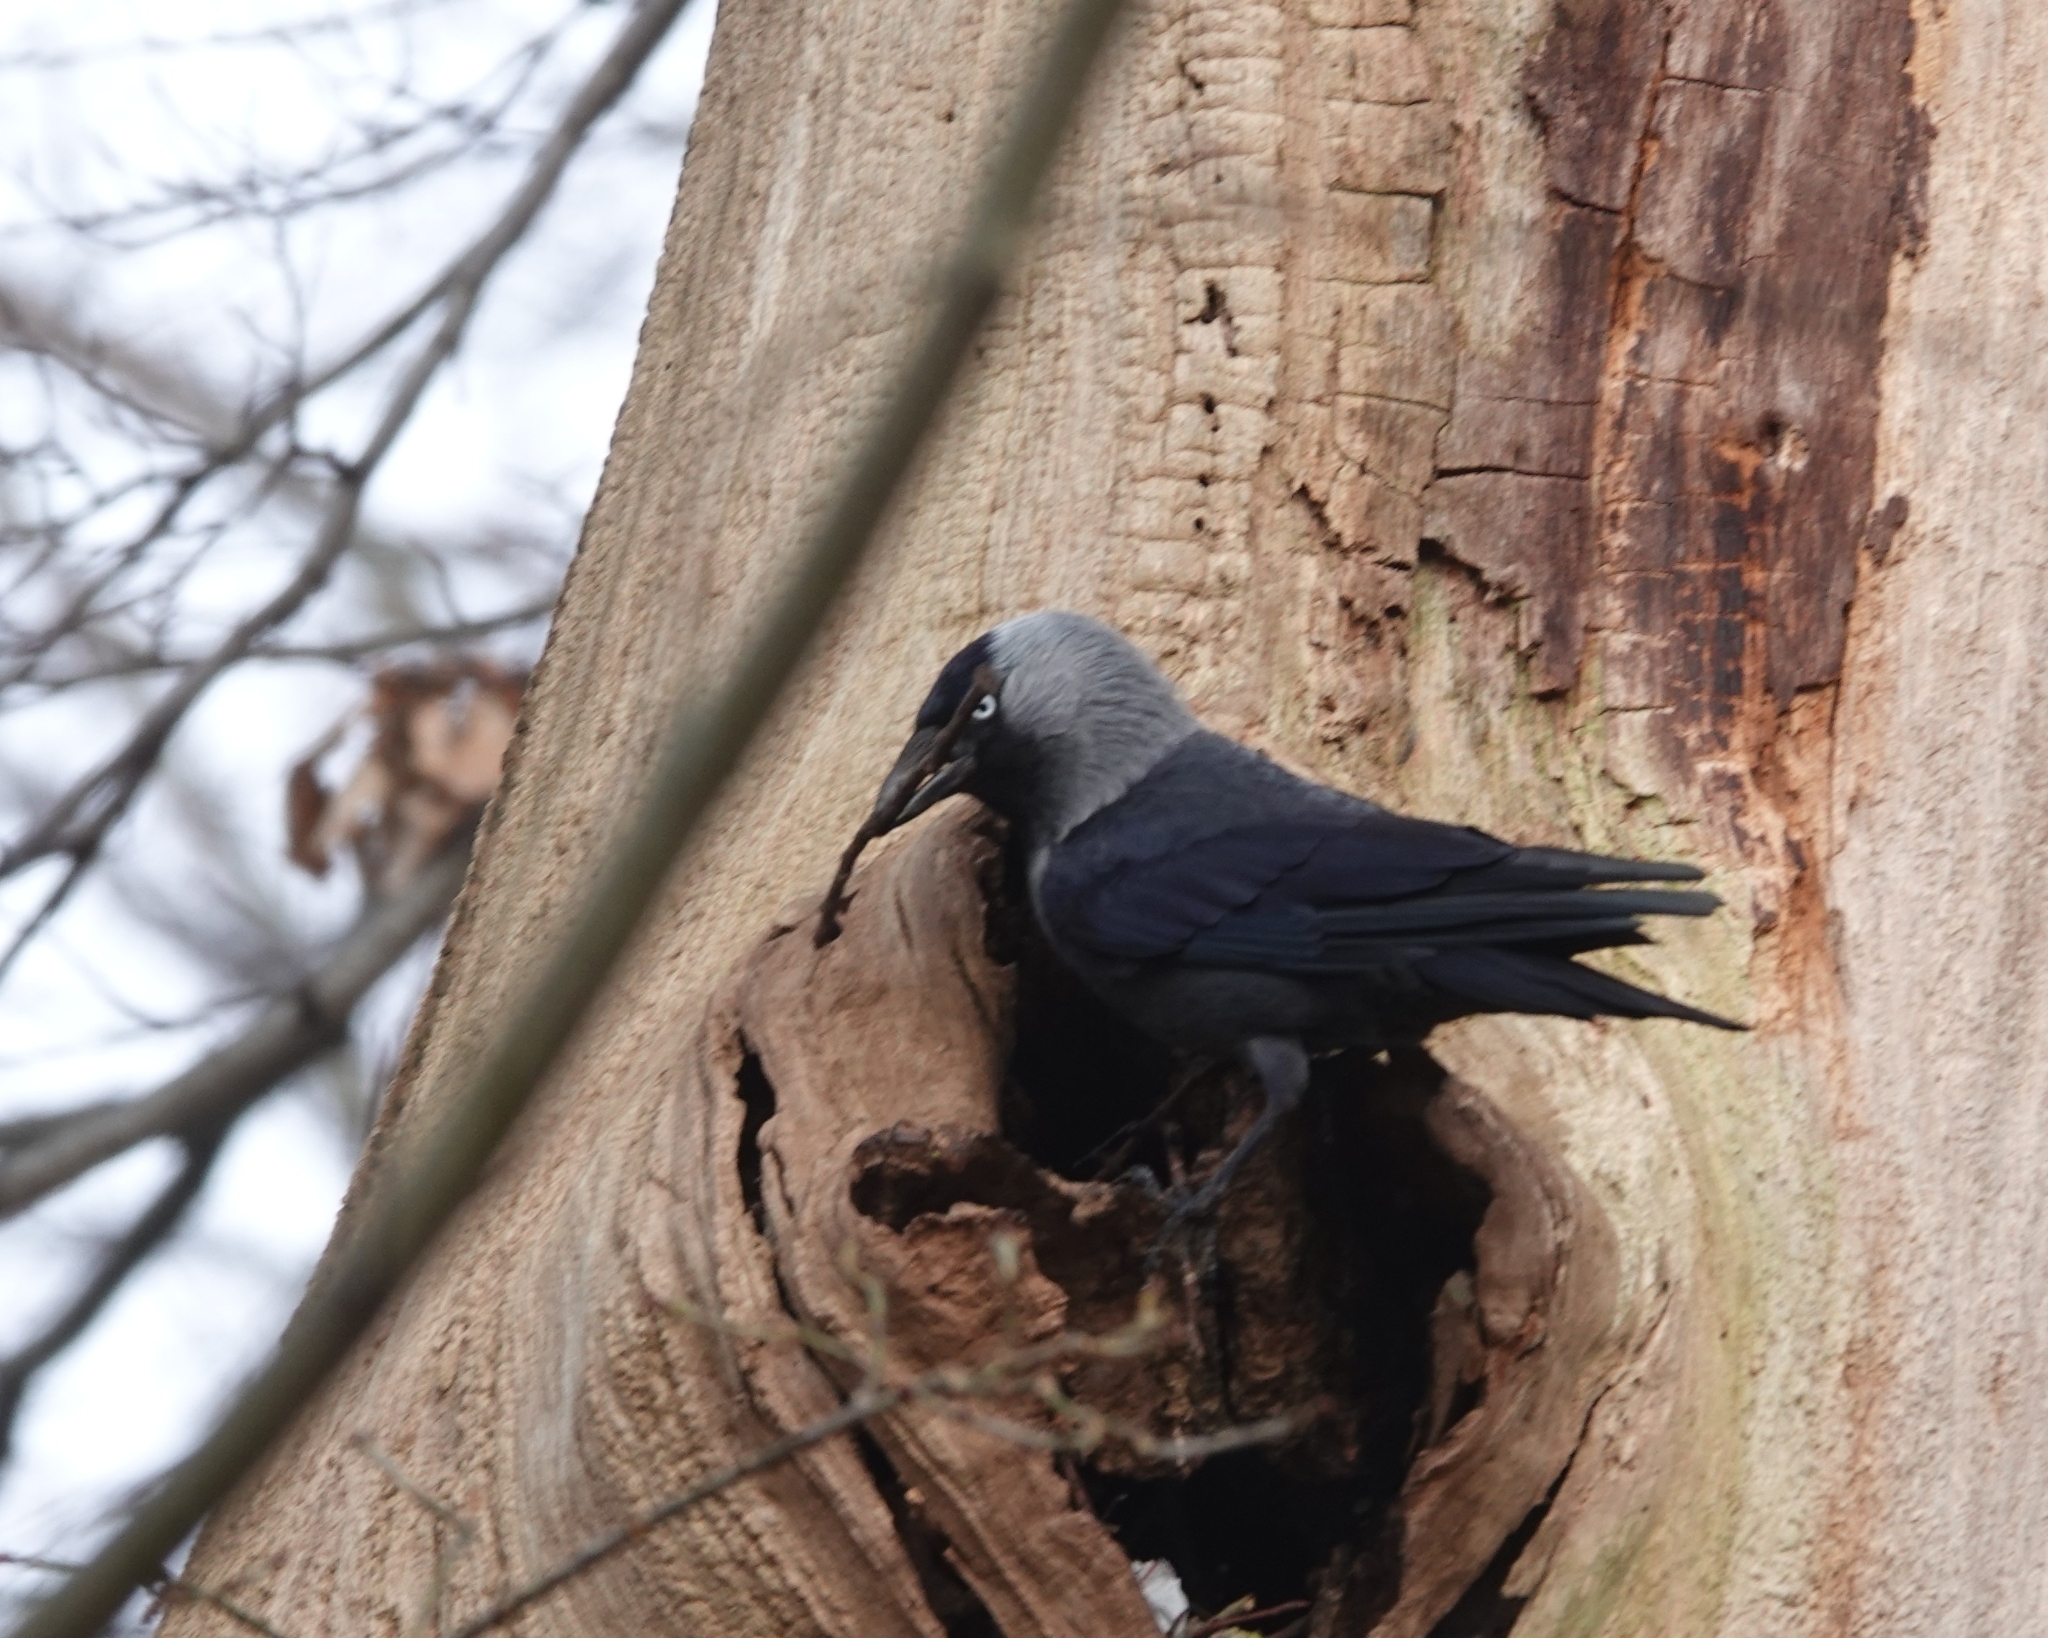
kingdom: Animalia
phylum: Chordata
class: Aves
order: Passeriformes
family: Corvidae
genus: Coloeus
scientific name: Coloeus monedula
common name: Western jackdaw
